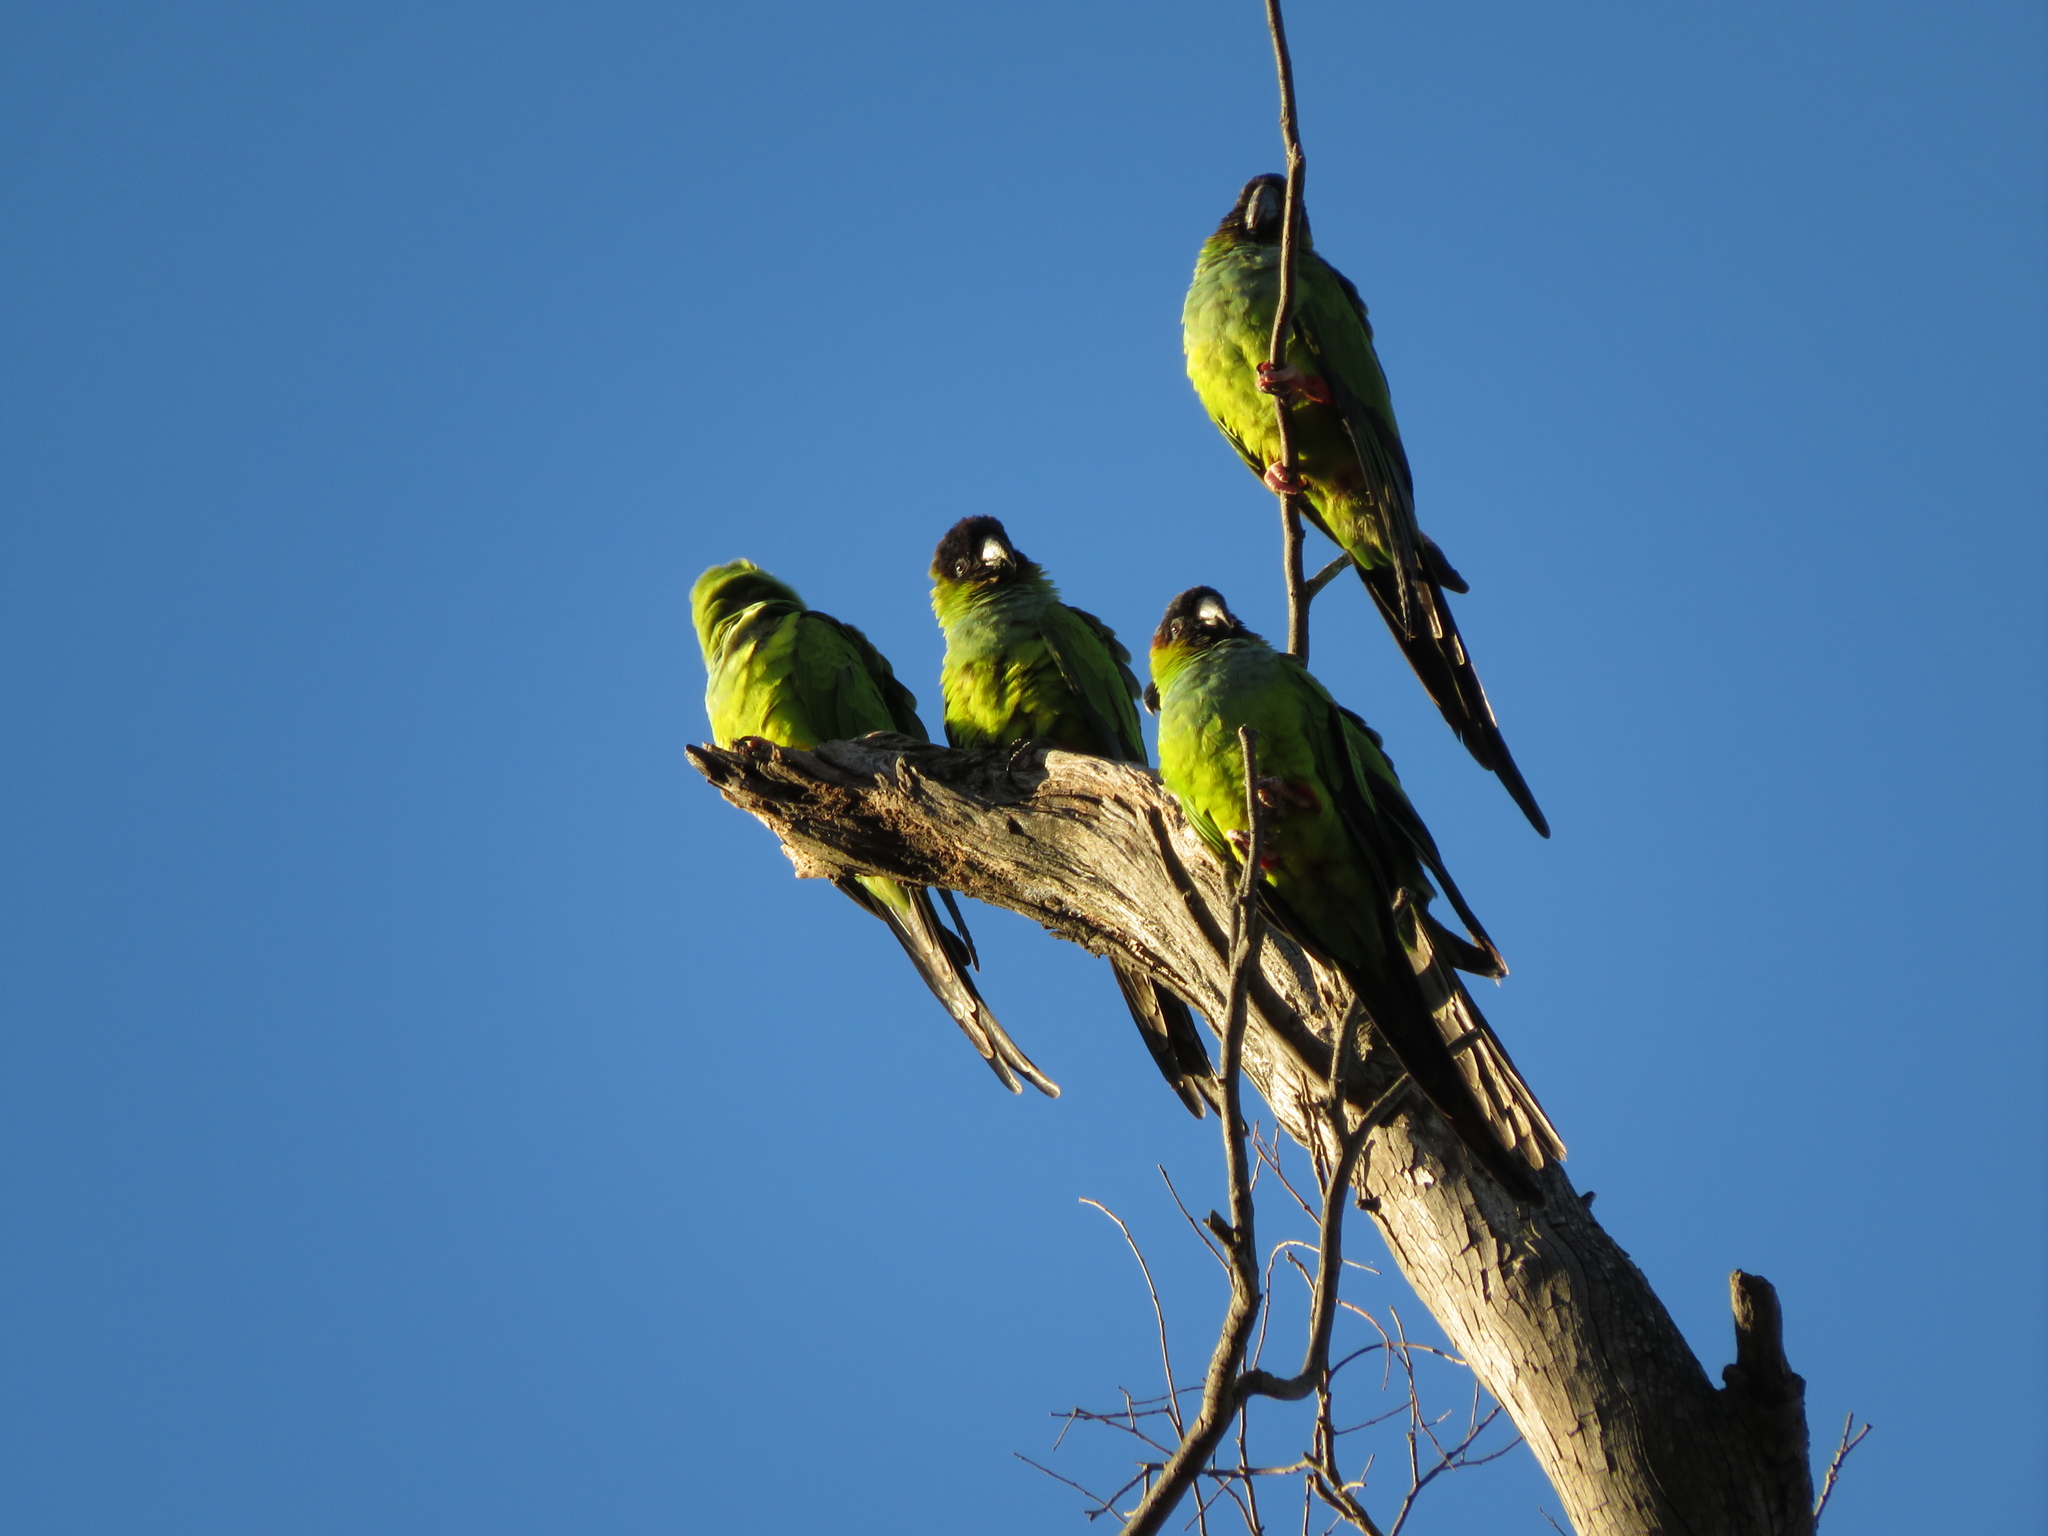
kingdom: Animalia
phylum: Chordata
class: Aves
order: Psittaciformes
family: Psittacidae
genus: Nandayus
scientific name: Nandayus nenday
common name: Nanday parakeet
